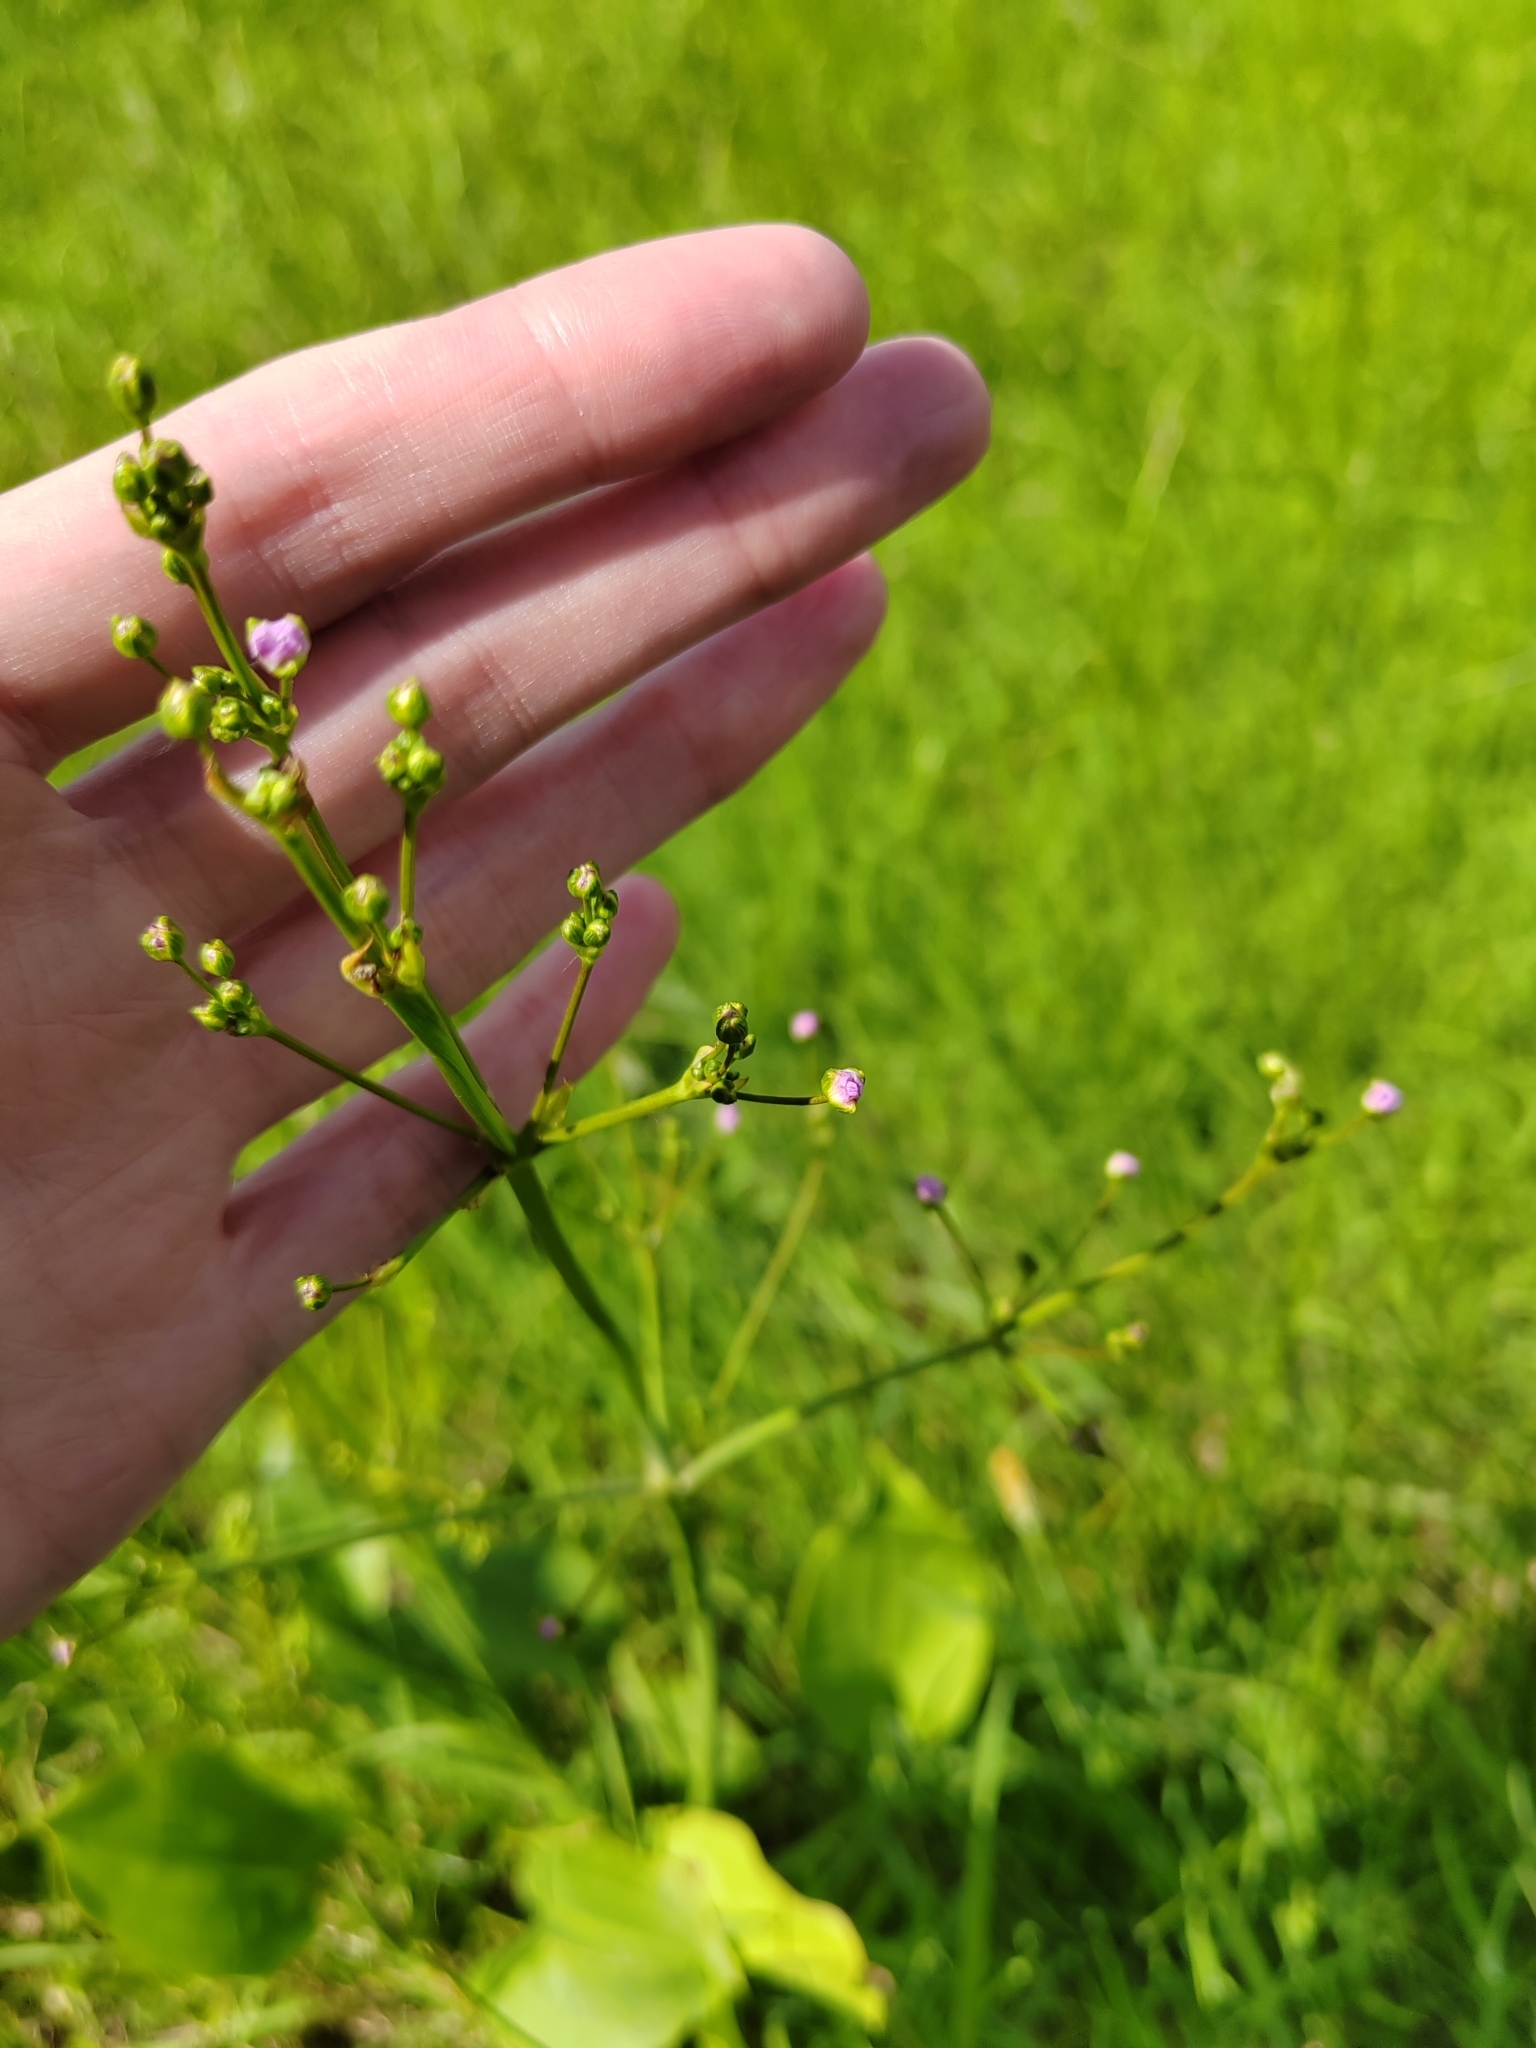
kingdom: Plantae
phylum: Tracheophyta
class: Liliopsida
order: Alismatales
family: Alismataceae
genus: Alisma
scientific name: Alisma plantago-aquatica
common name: Water-plantain
